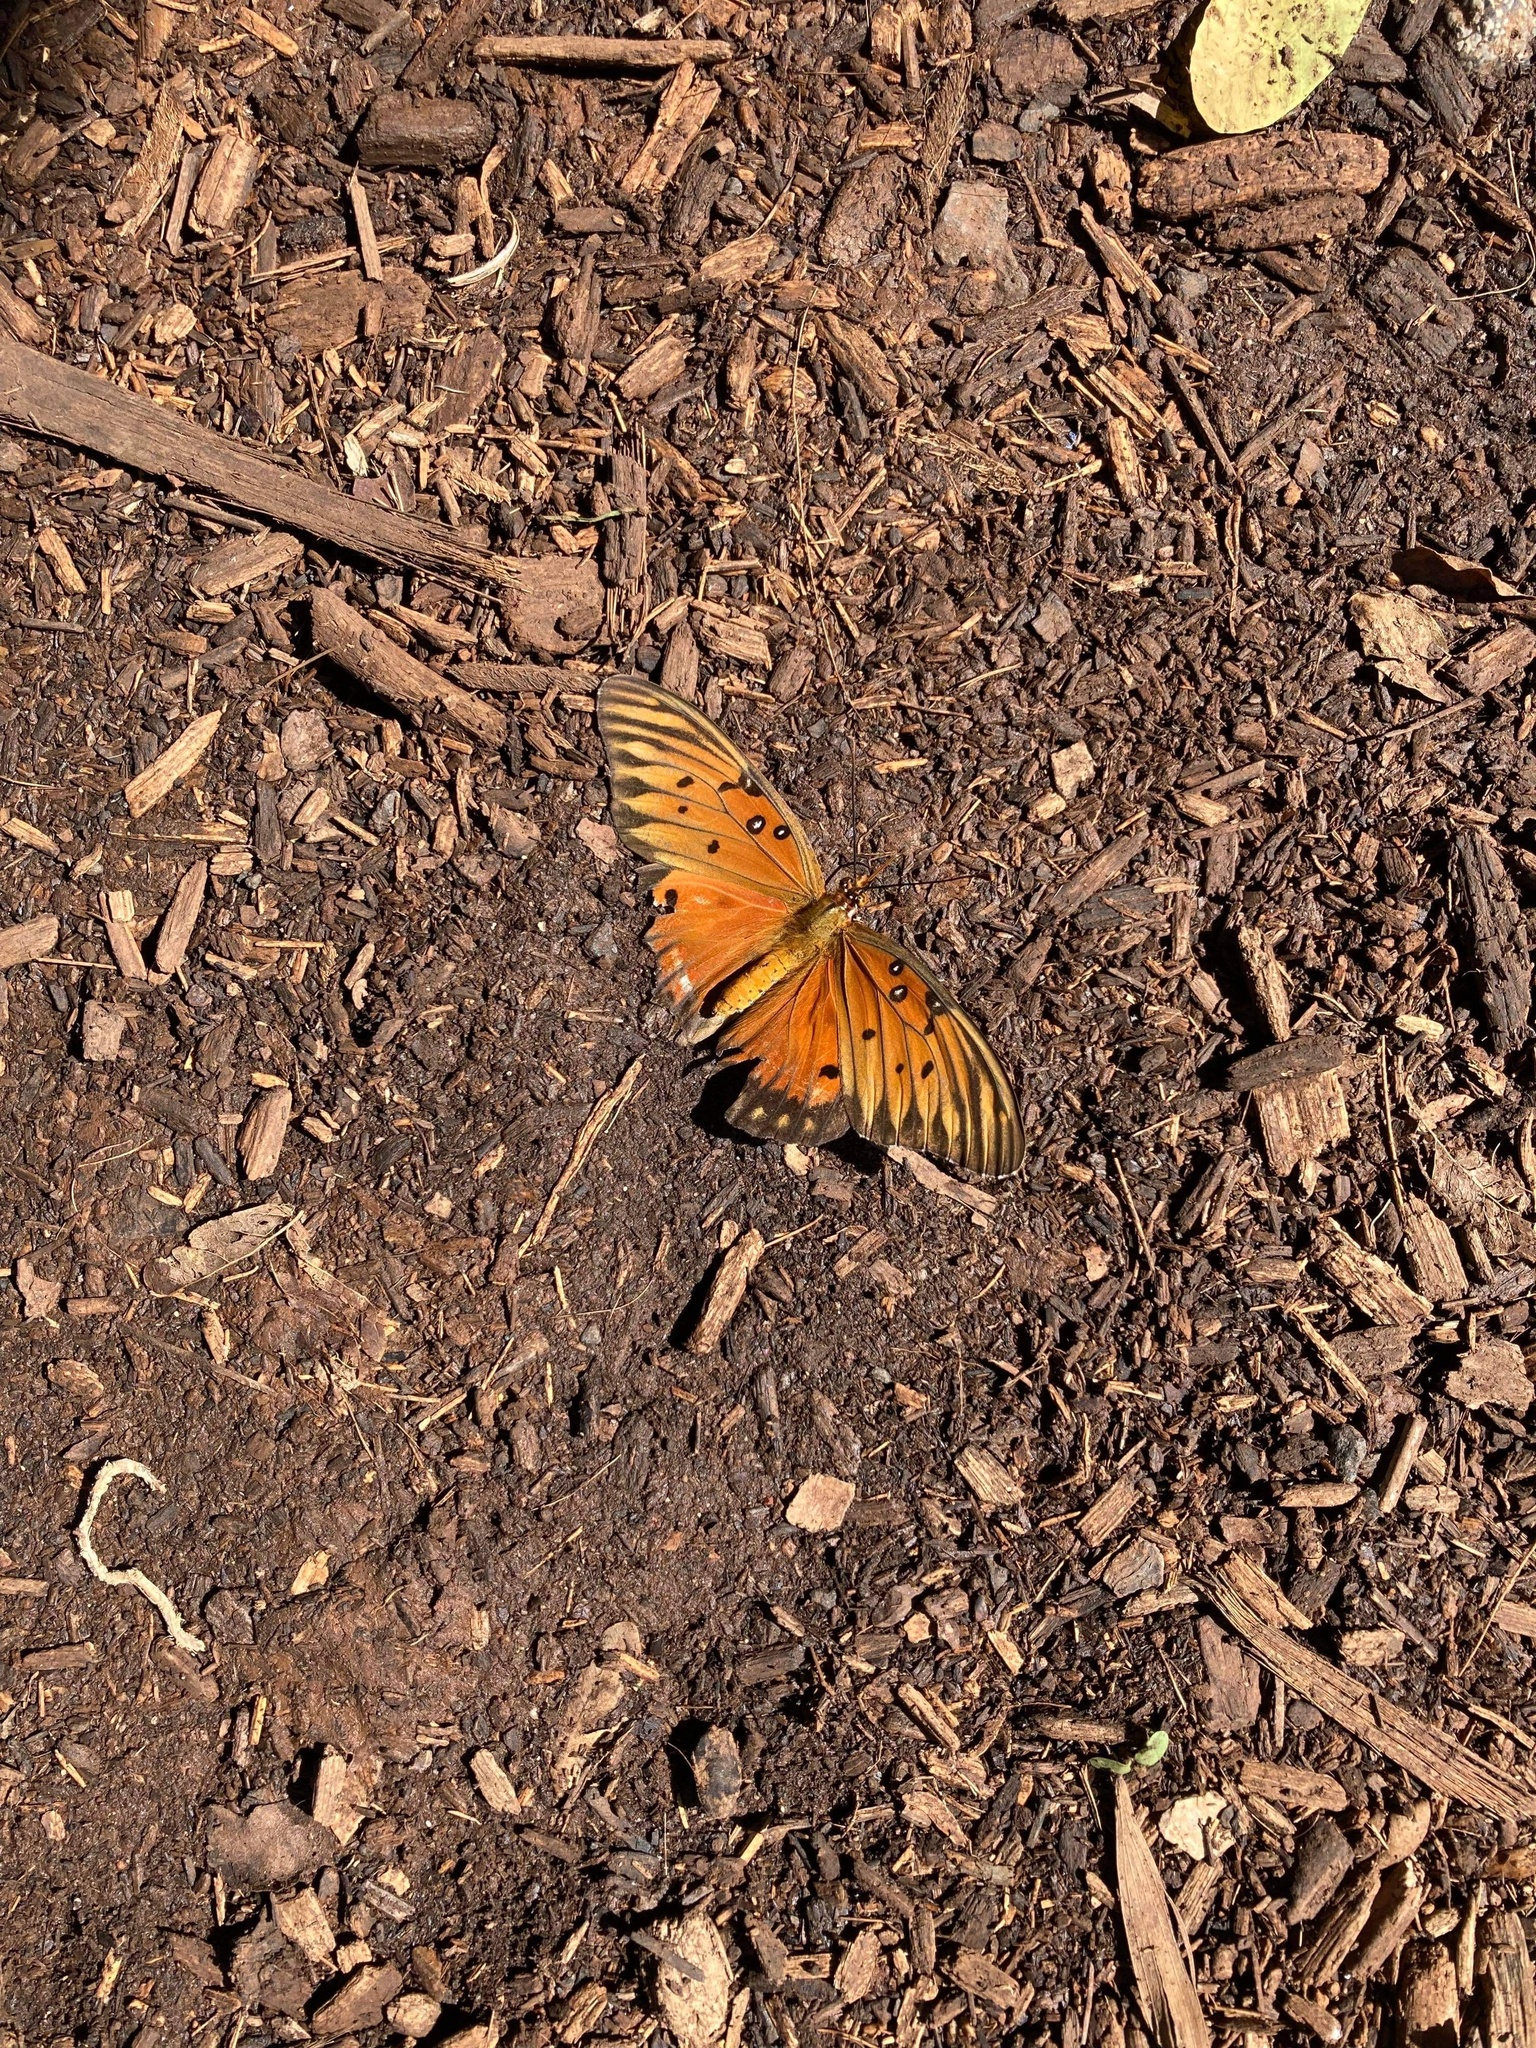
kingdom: Animalia
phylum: Arthropoda
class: Insecta
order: Lepidoptera
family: Nymphalidae
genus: Dione
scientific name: Dione vanillae
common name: Gulf fritillary
